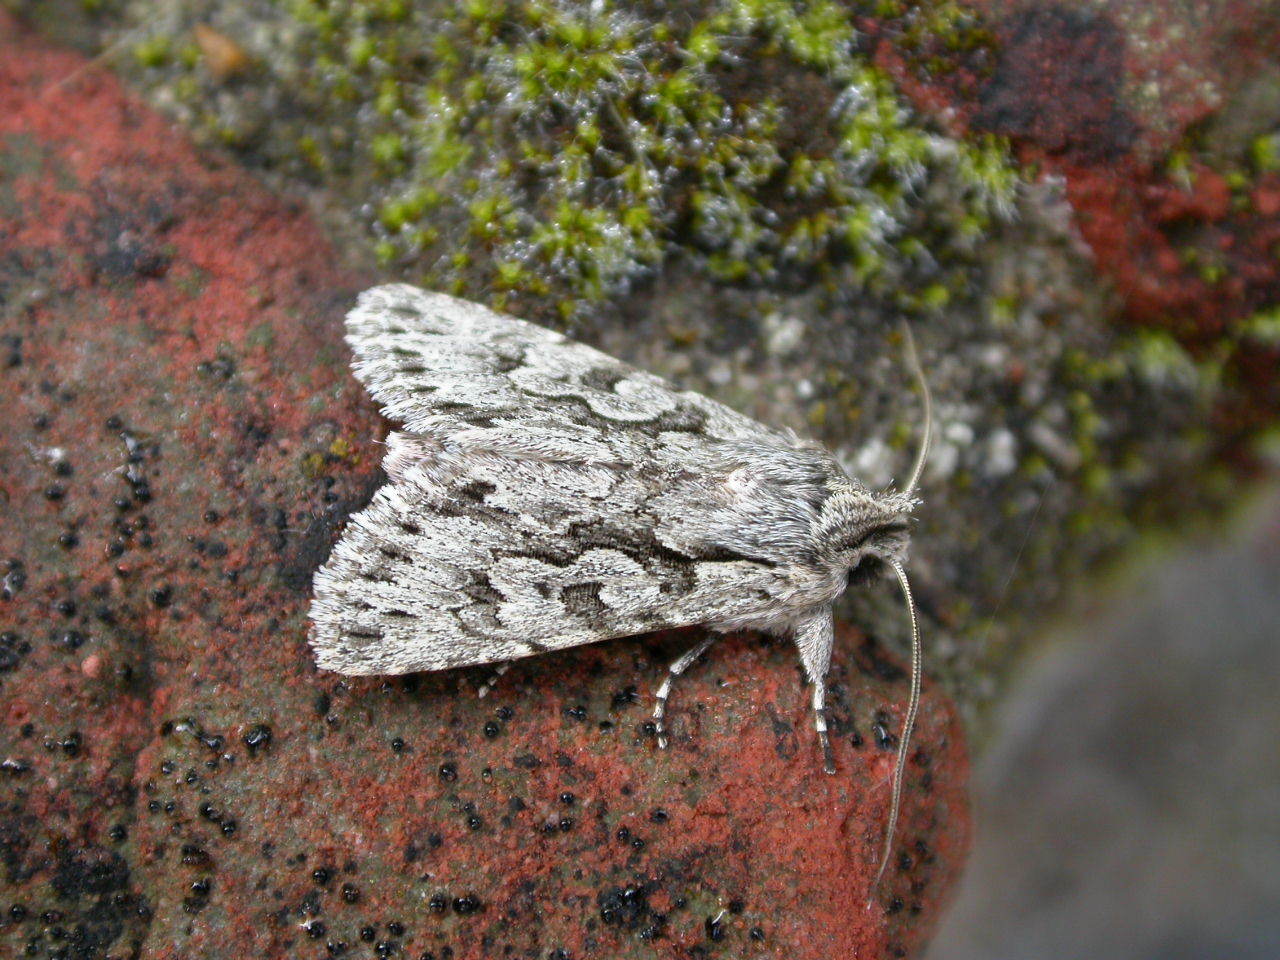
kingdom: Animalia
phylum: Arthropoda
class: Insecta
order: Lepidoptera
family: Noctuidae
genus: Xylocampa
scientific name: Xylocampa areola
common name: Early grey
